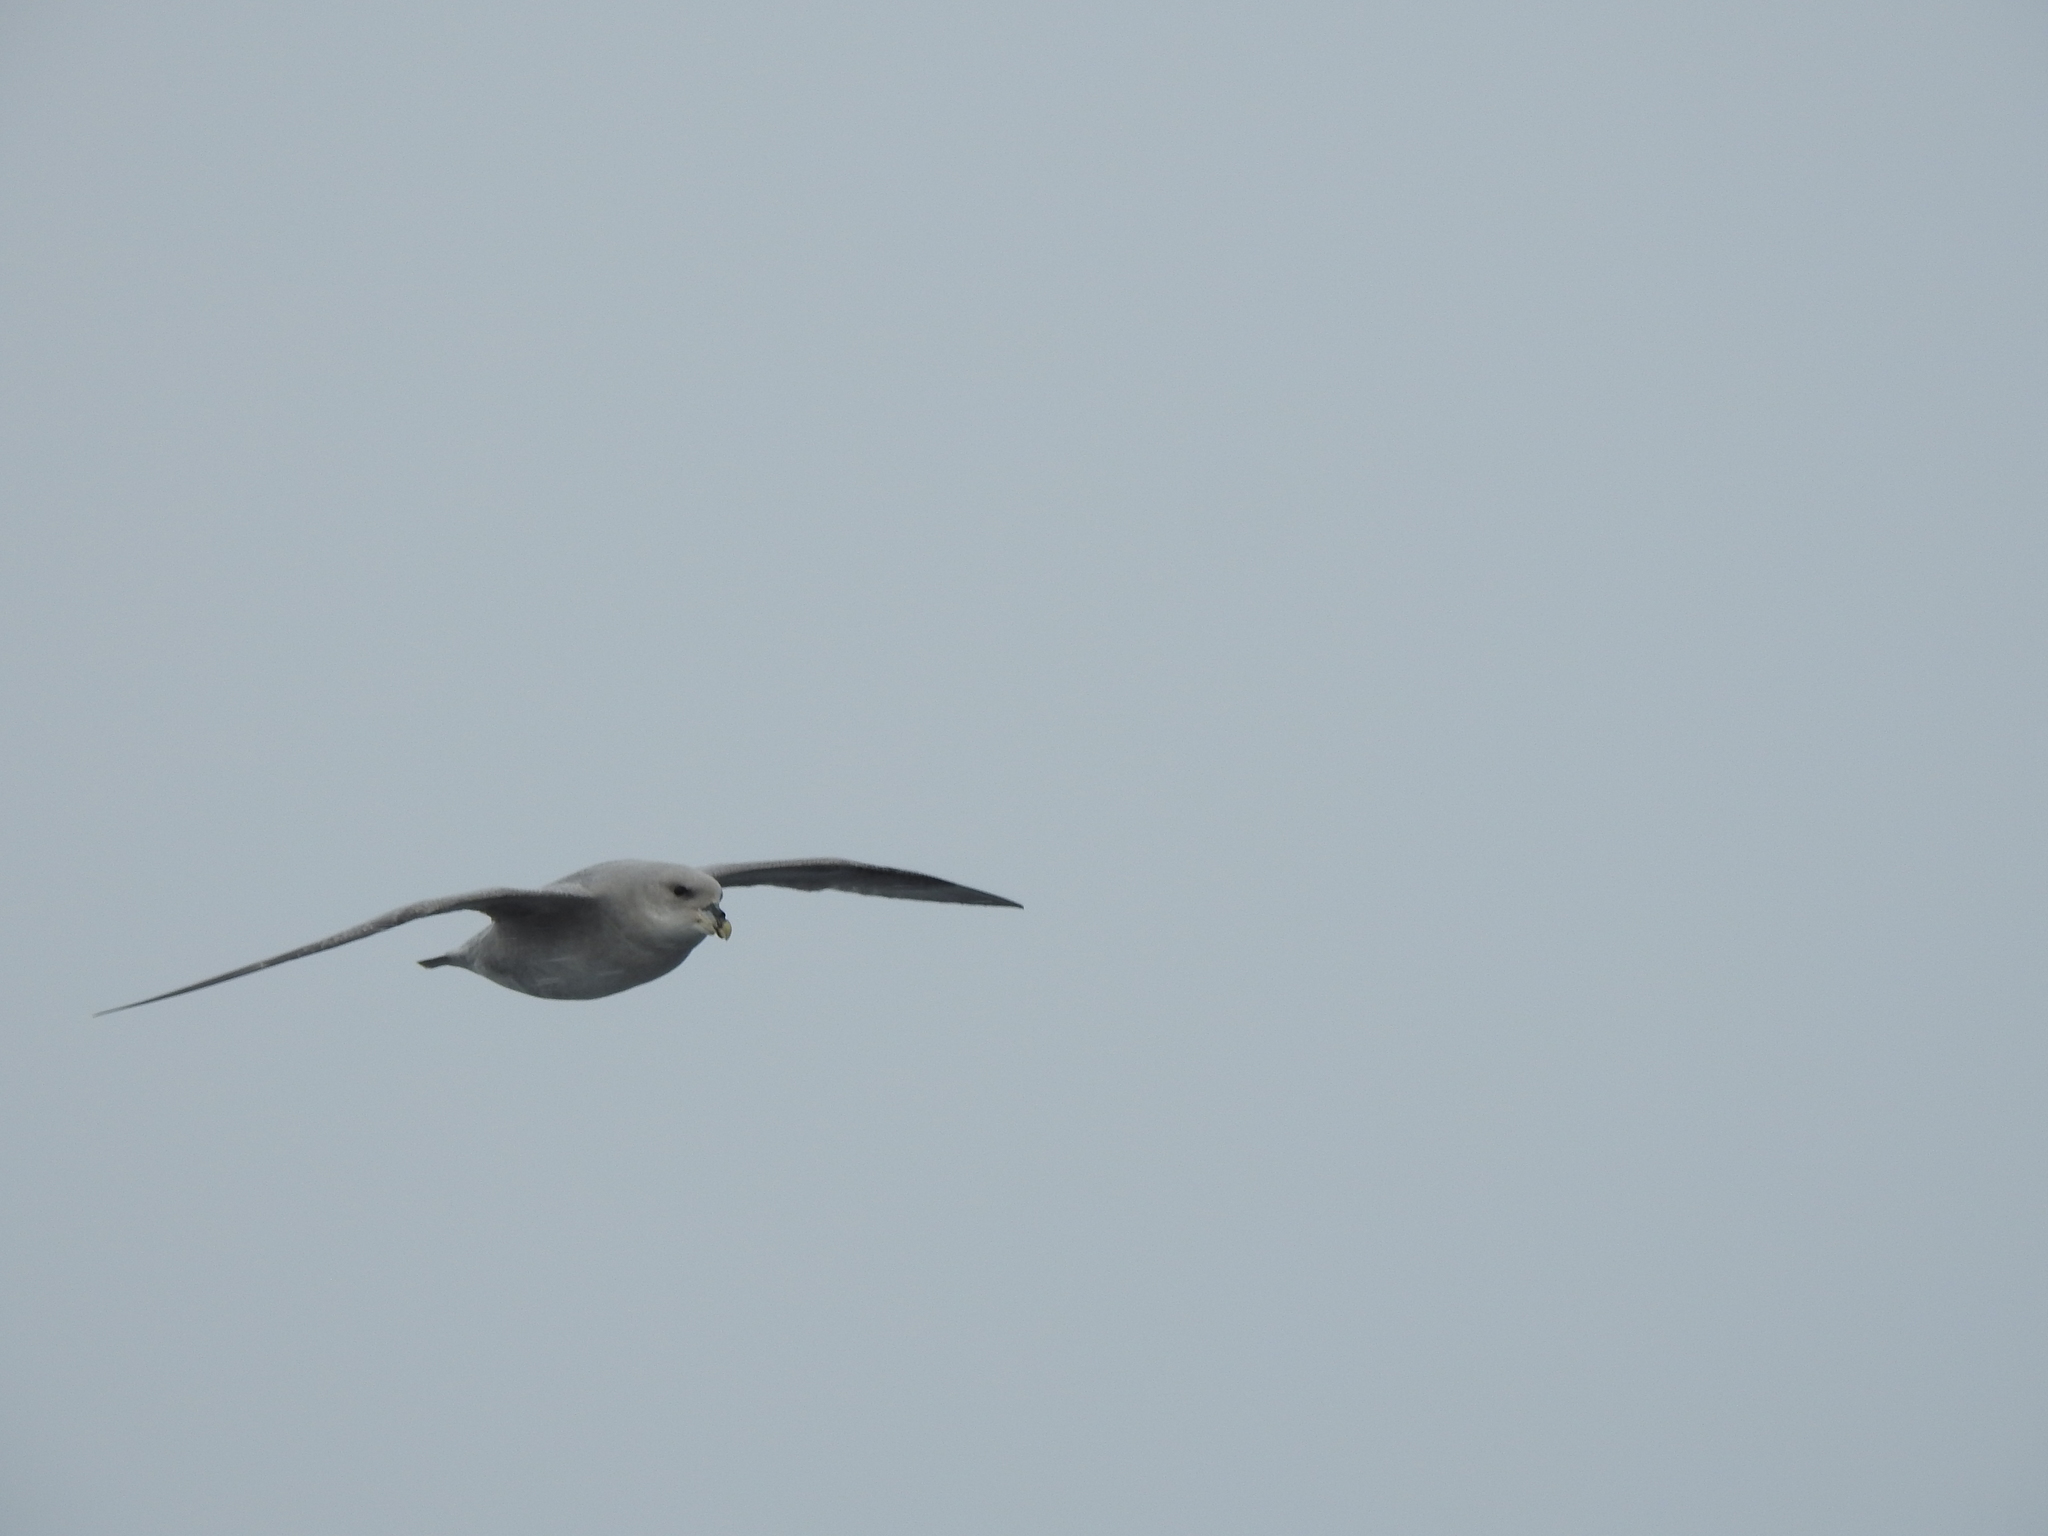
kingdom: Animalia
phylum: Chordata
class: Aves
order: Procellariiformes
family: Procellariidae
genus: Fulmarus
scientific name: Fulmarus glacialis
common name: Northern fulmar
